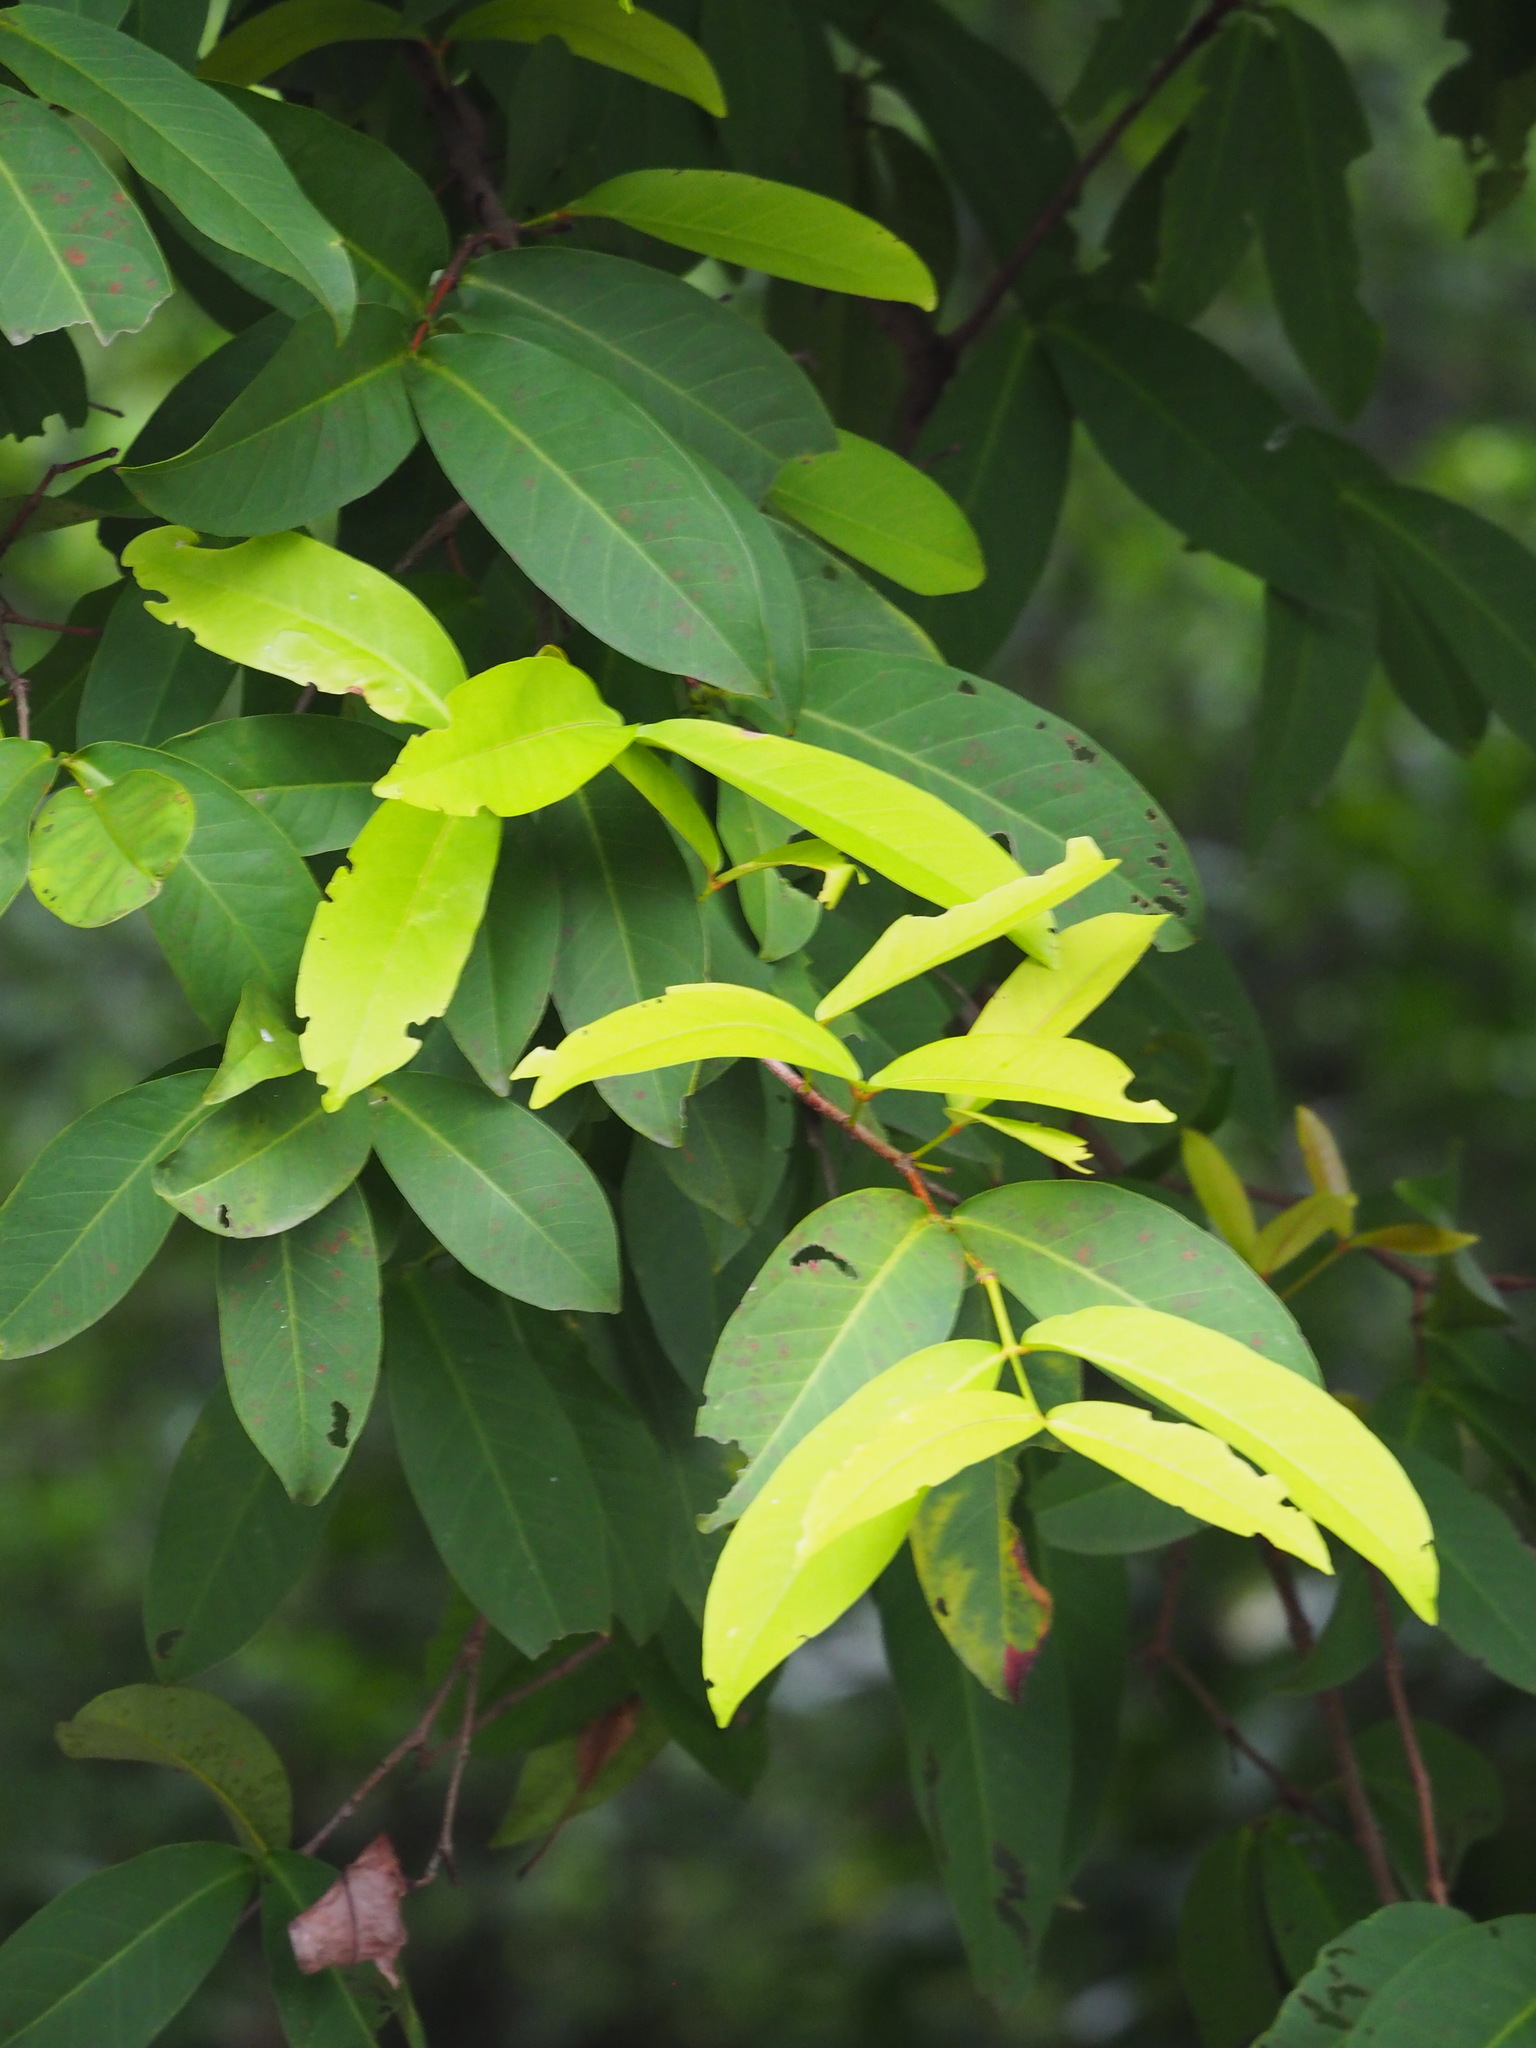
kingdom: Plantae
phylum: Tracheophyta
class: Magnoliopsida
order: Myrtales
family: Myrtaceae
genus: Syzygium
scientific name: Syzygium samarangense
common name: Semarang rose-apple
